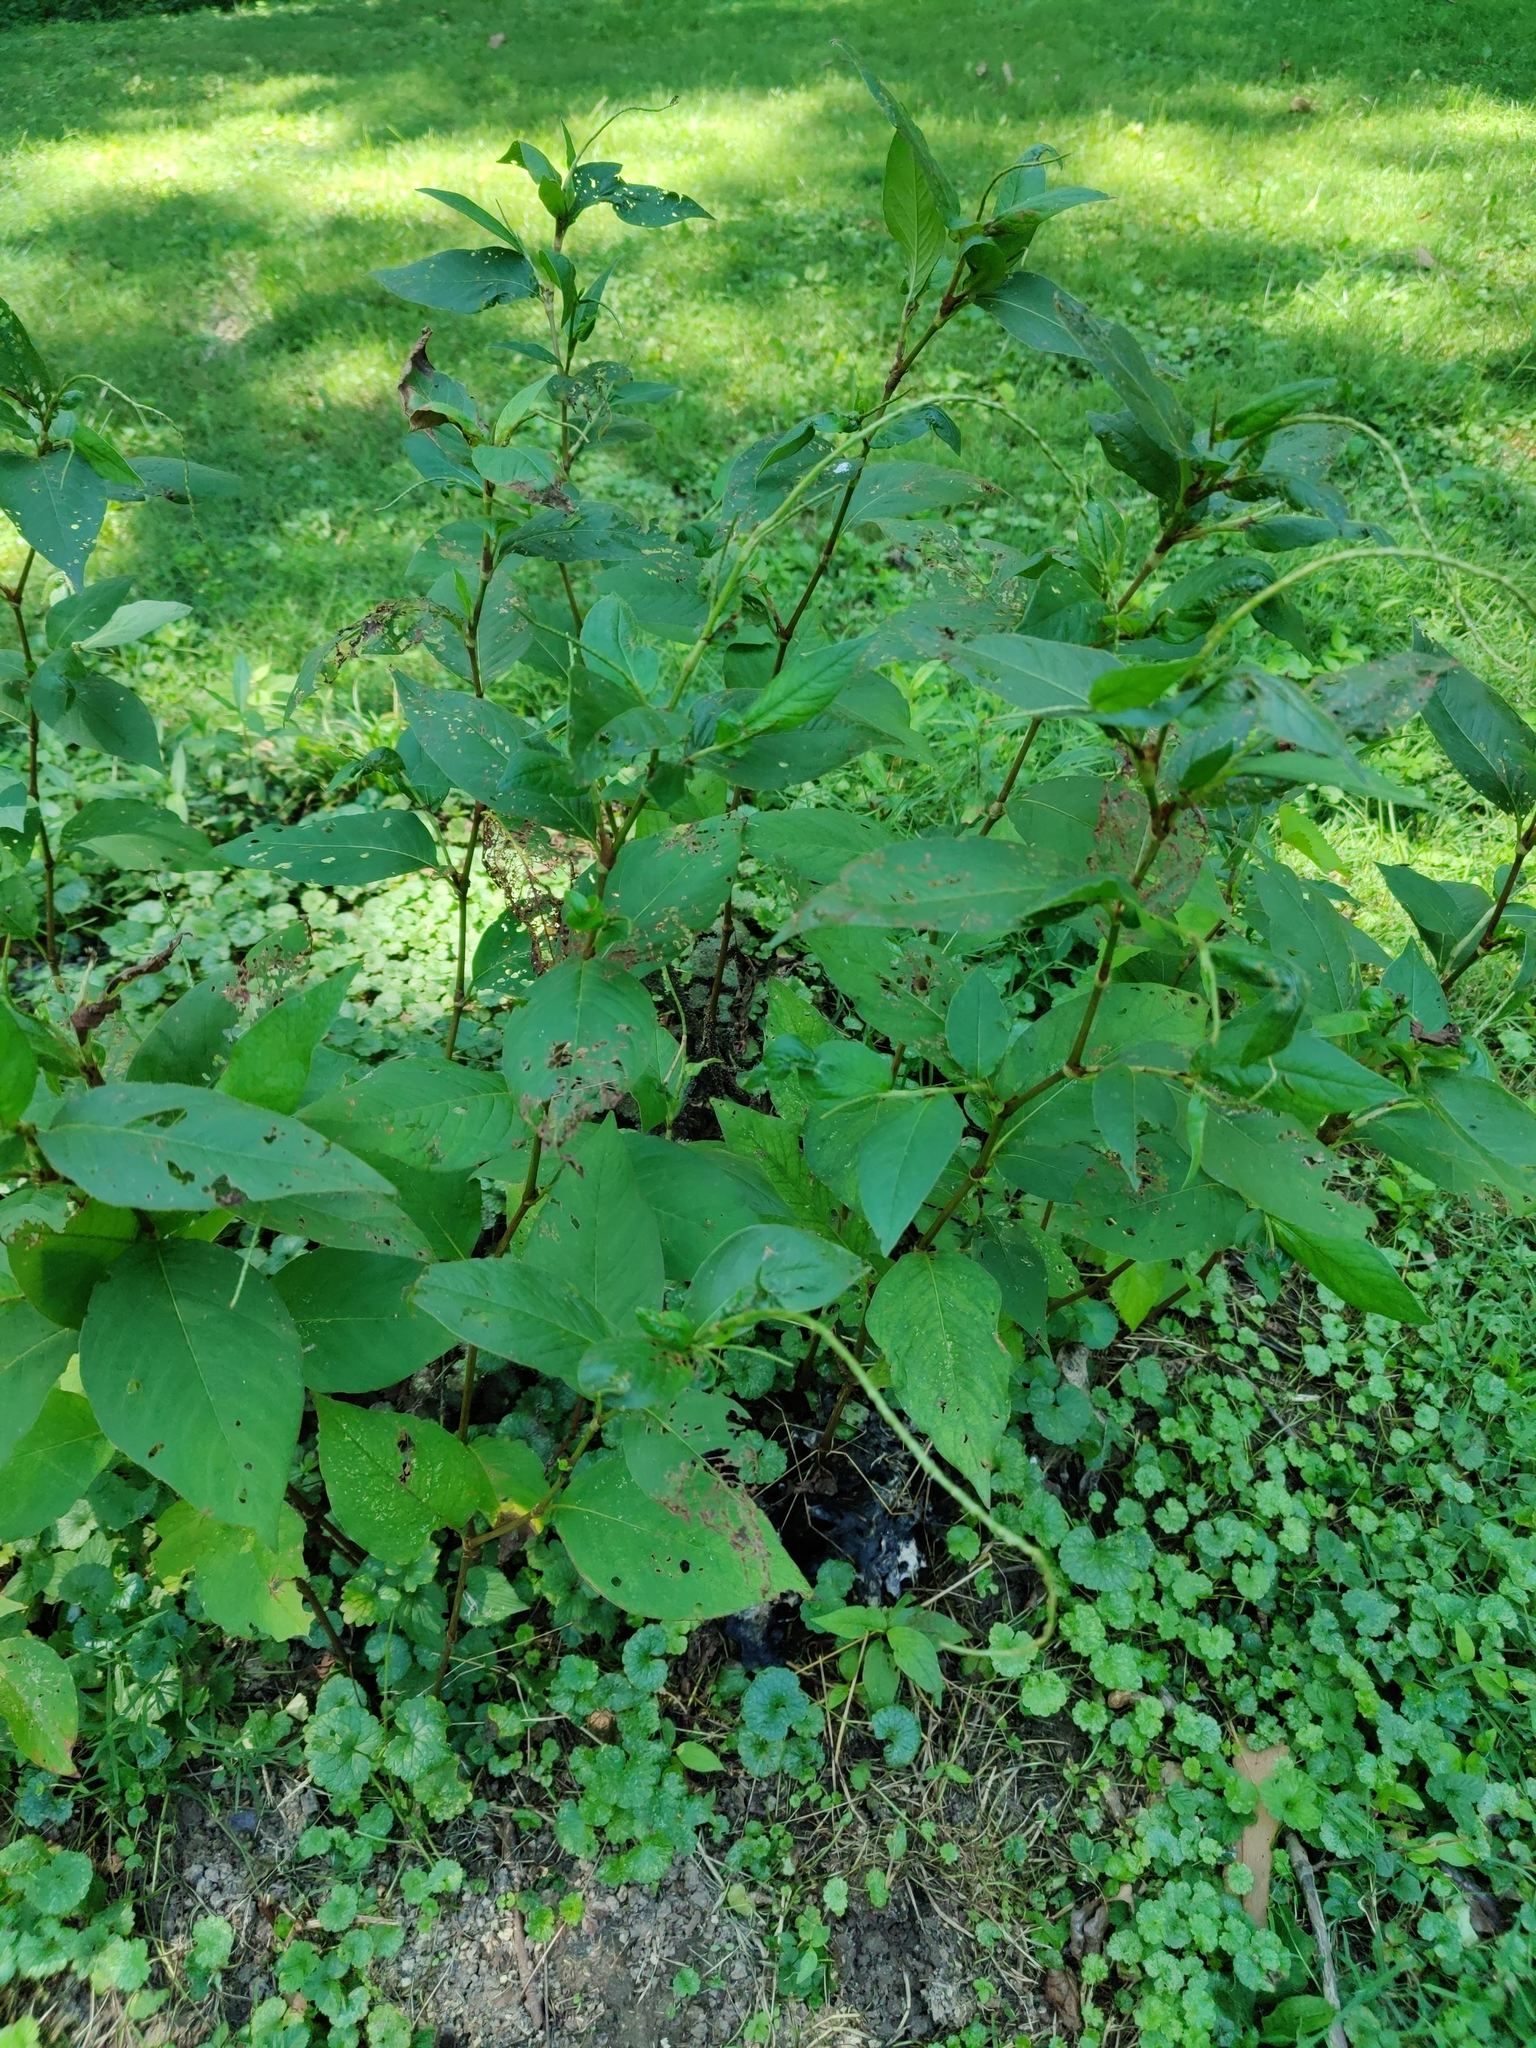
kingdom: Plantae
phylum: Tracheophyta
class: Magnoliopsida
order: Caryophyllales
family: Polygonaceae
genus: Persicaria
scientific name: Persicaria virginiana
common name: Jumpseed
